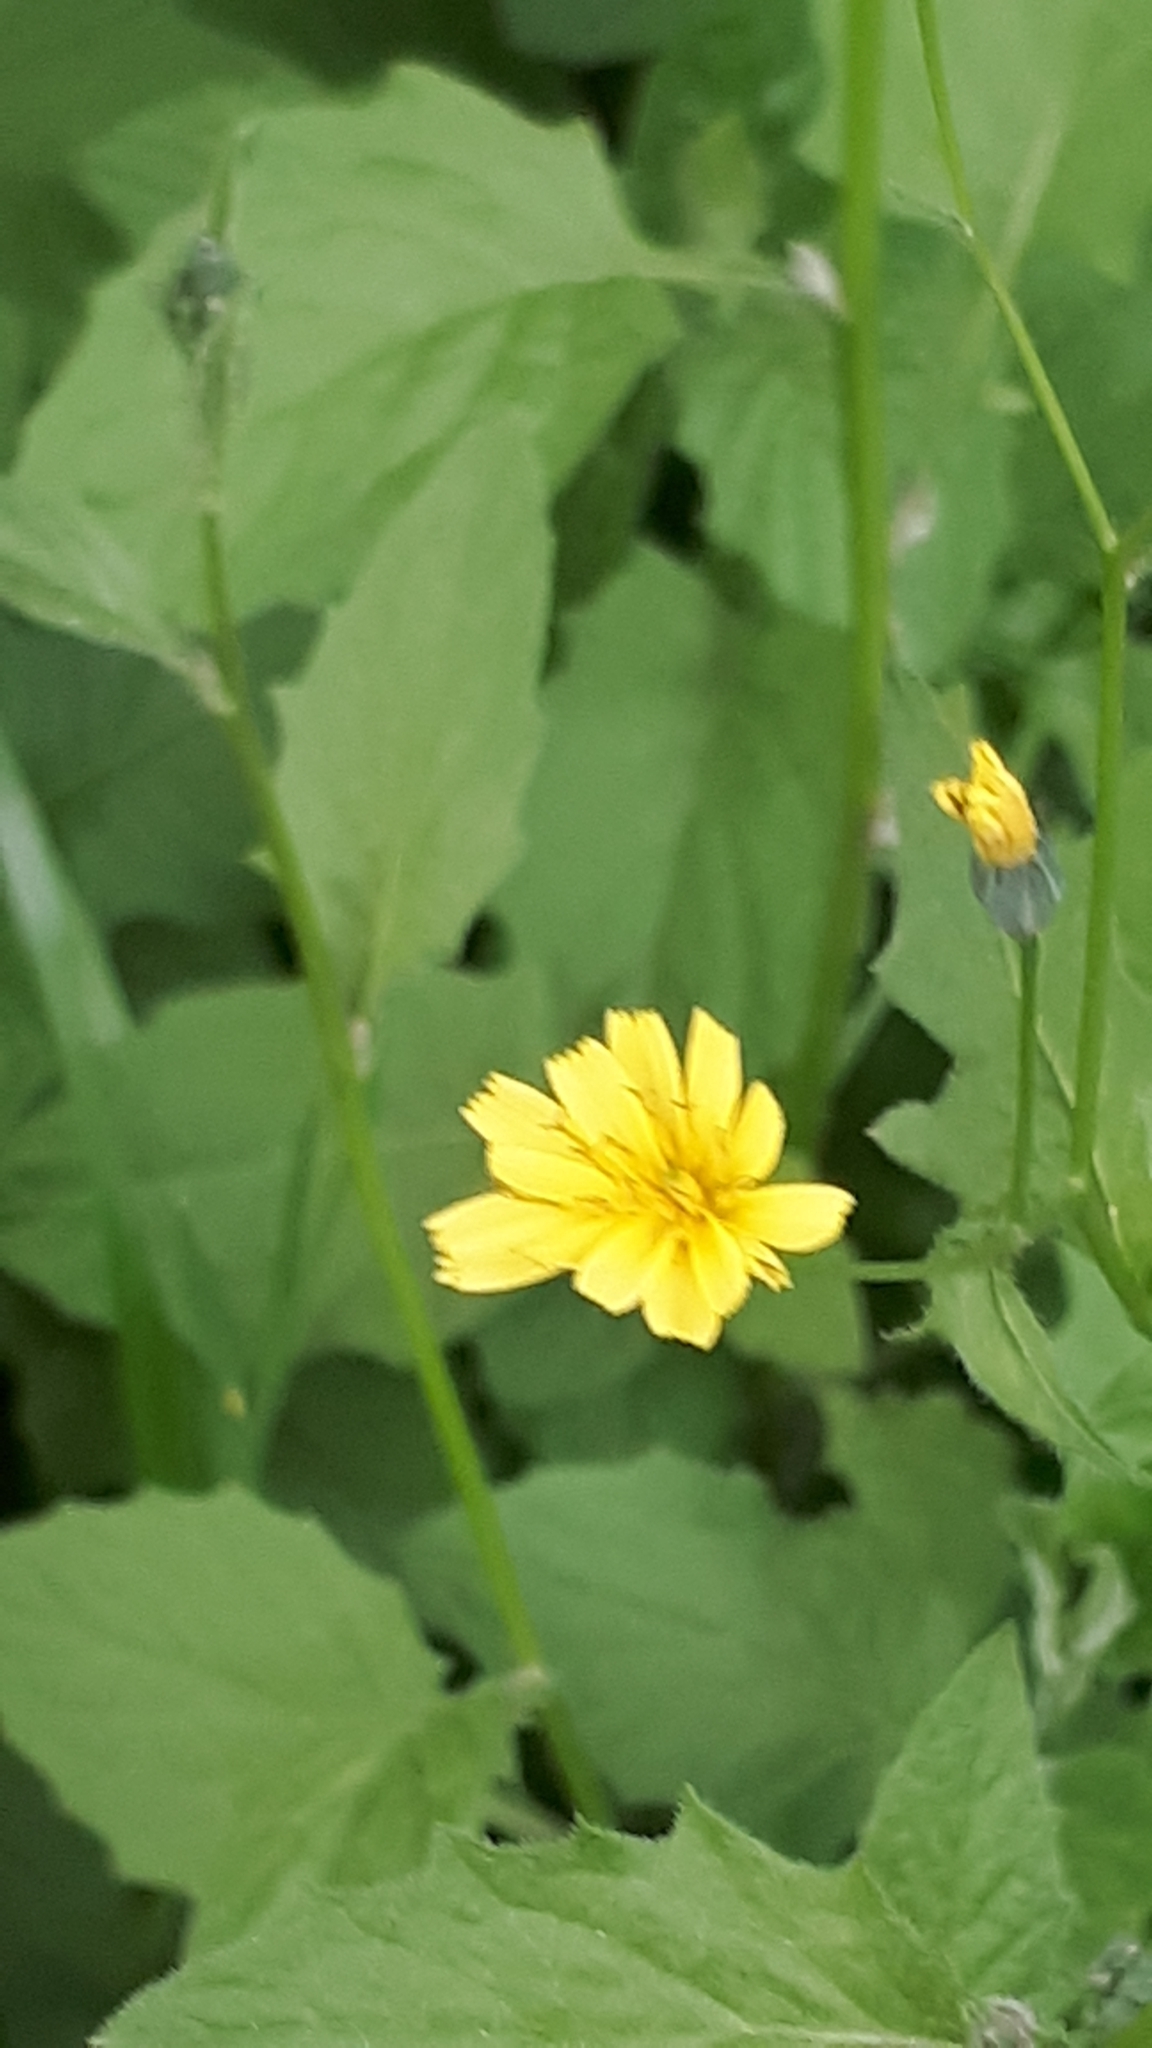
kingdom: Plantae
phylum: Tracheophyta
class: Magnoliopsida
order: Asterales
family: Asteraceae
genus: Lapsana
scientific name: Lapsana communis
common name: Nipplewort
